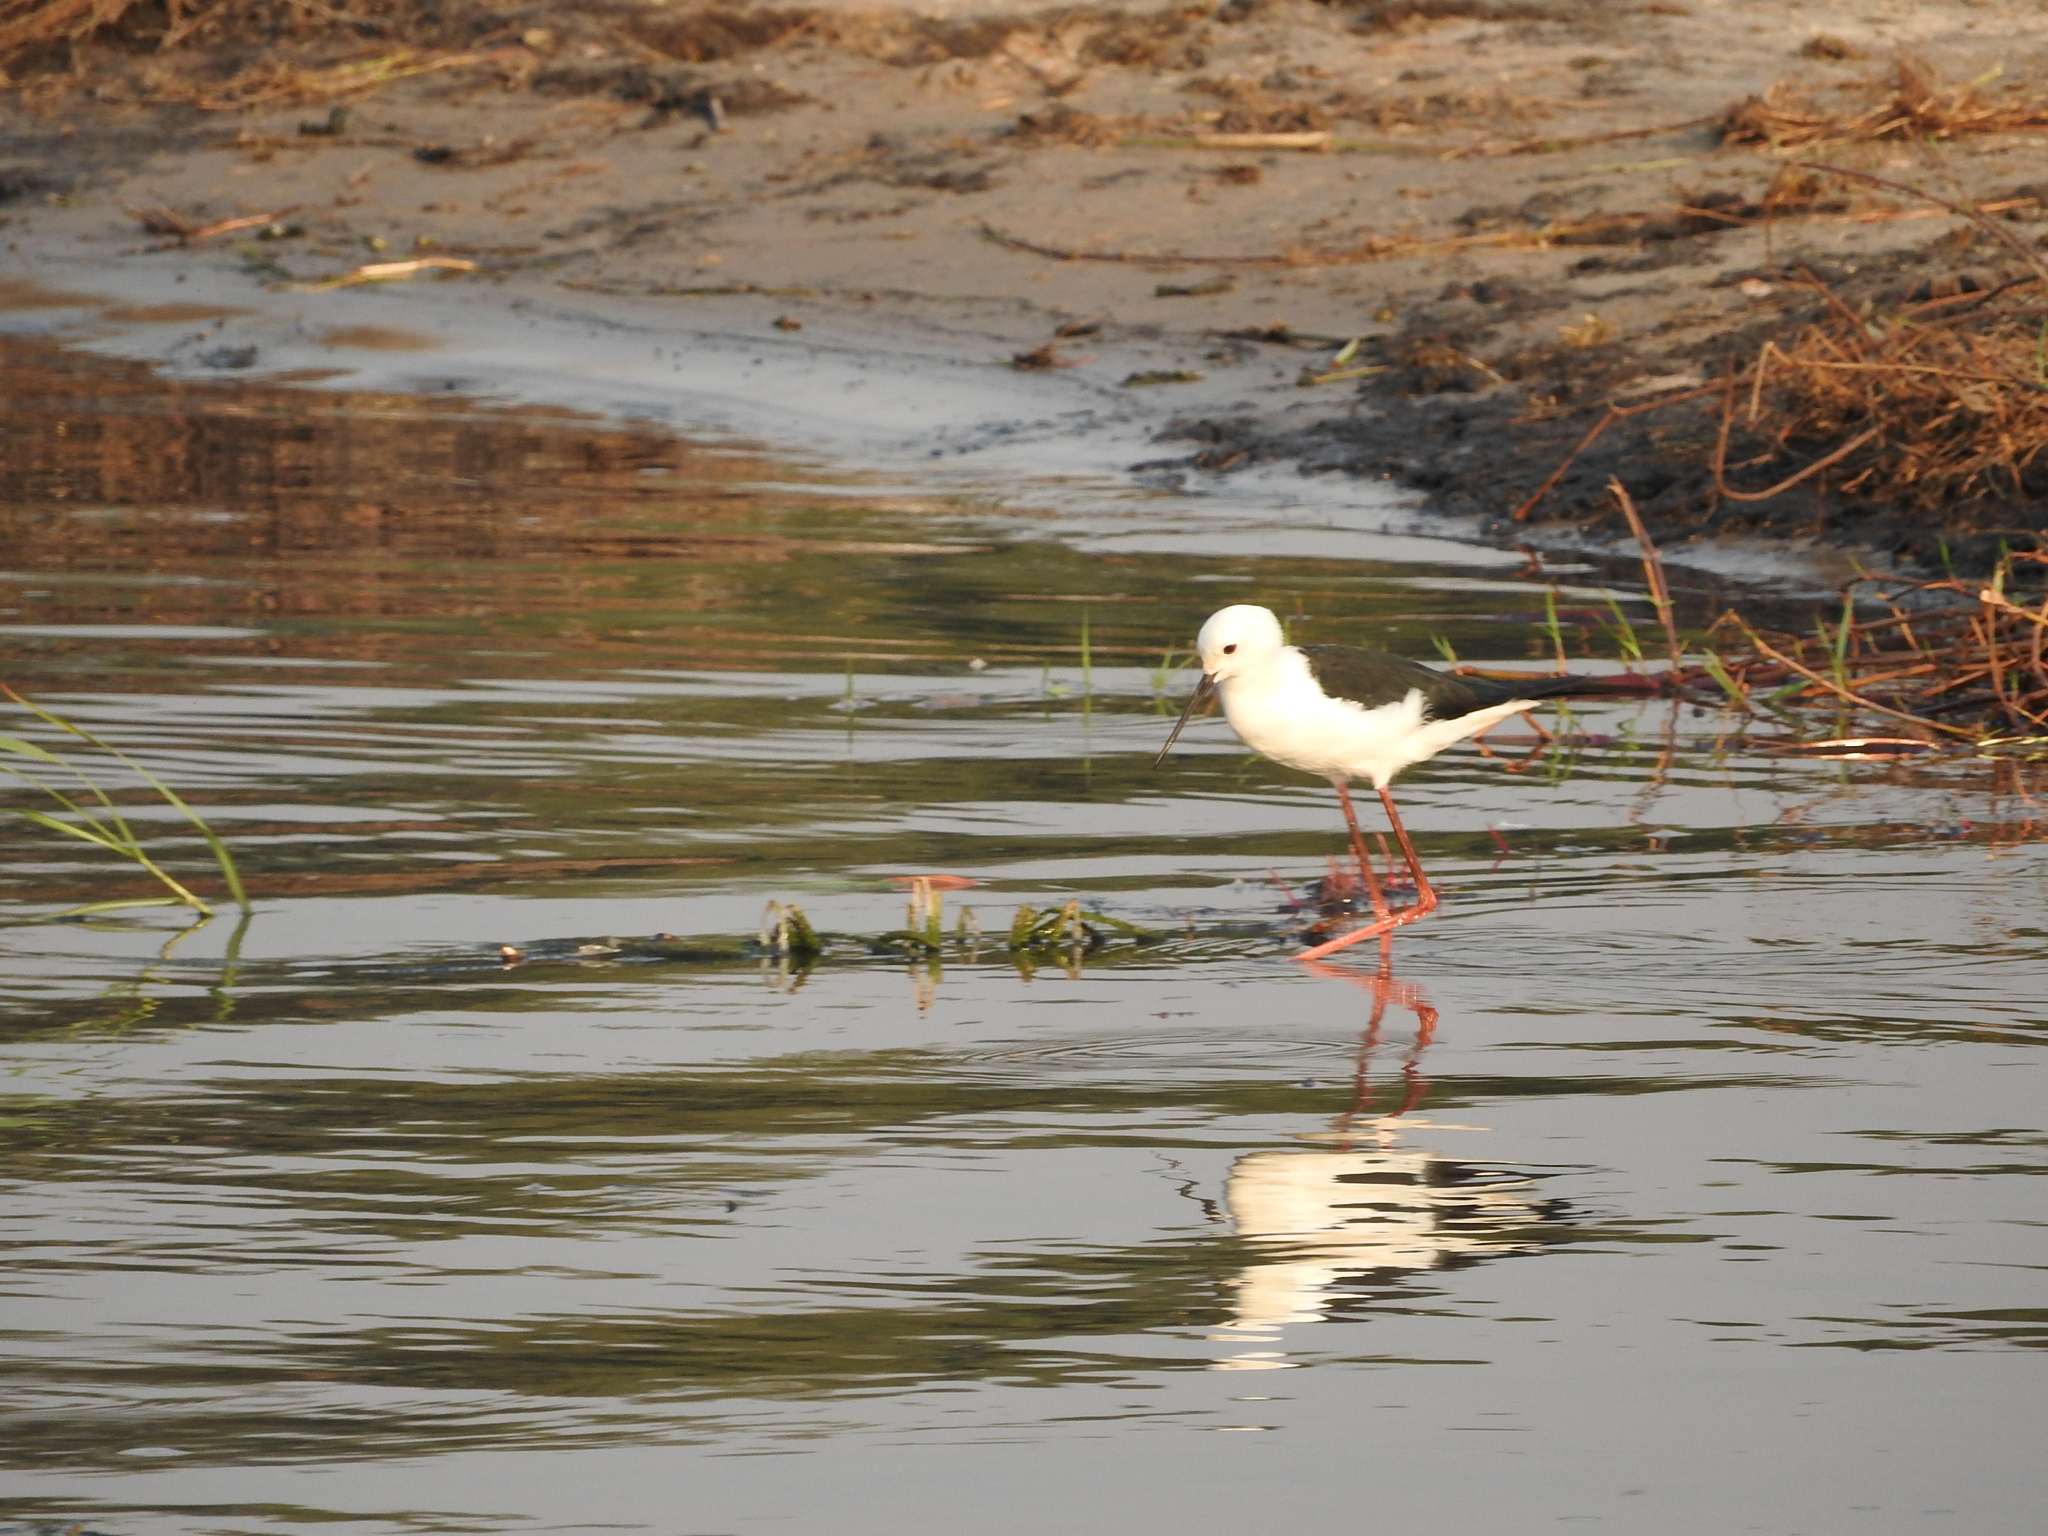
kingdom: Animalia
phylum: Chordata
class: Aves
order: Charadriiformes
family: Recurvirostridae
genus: Himantopus
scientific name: Himantopus himantopus
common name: Black-winged stilt
